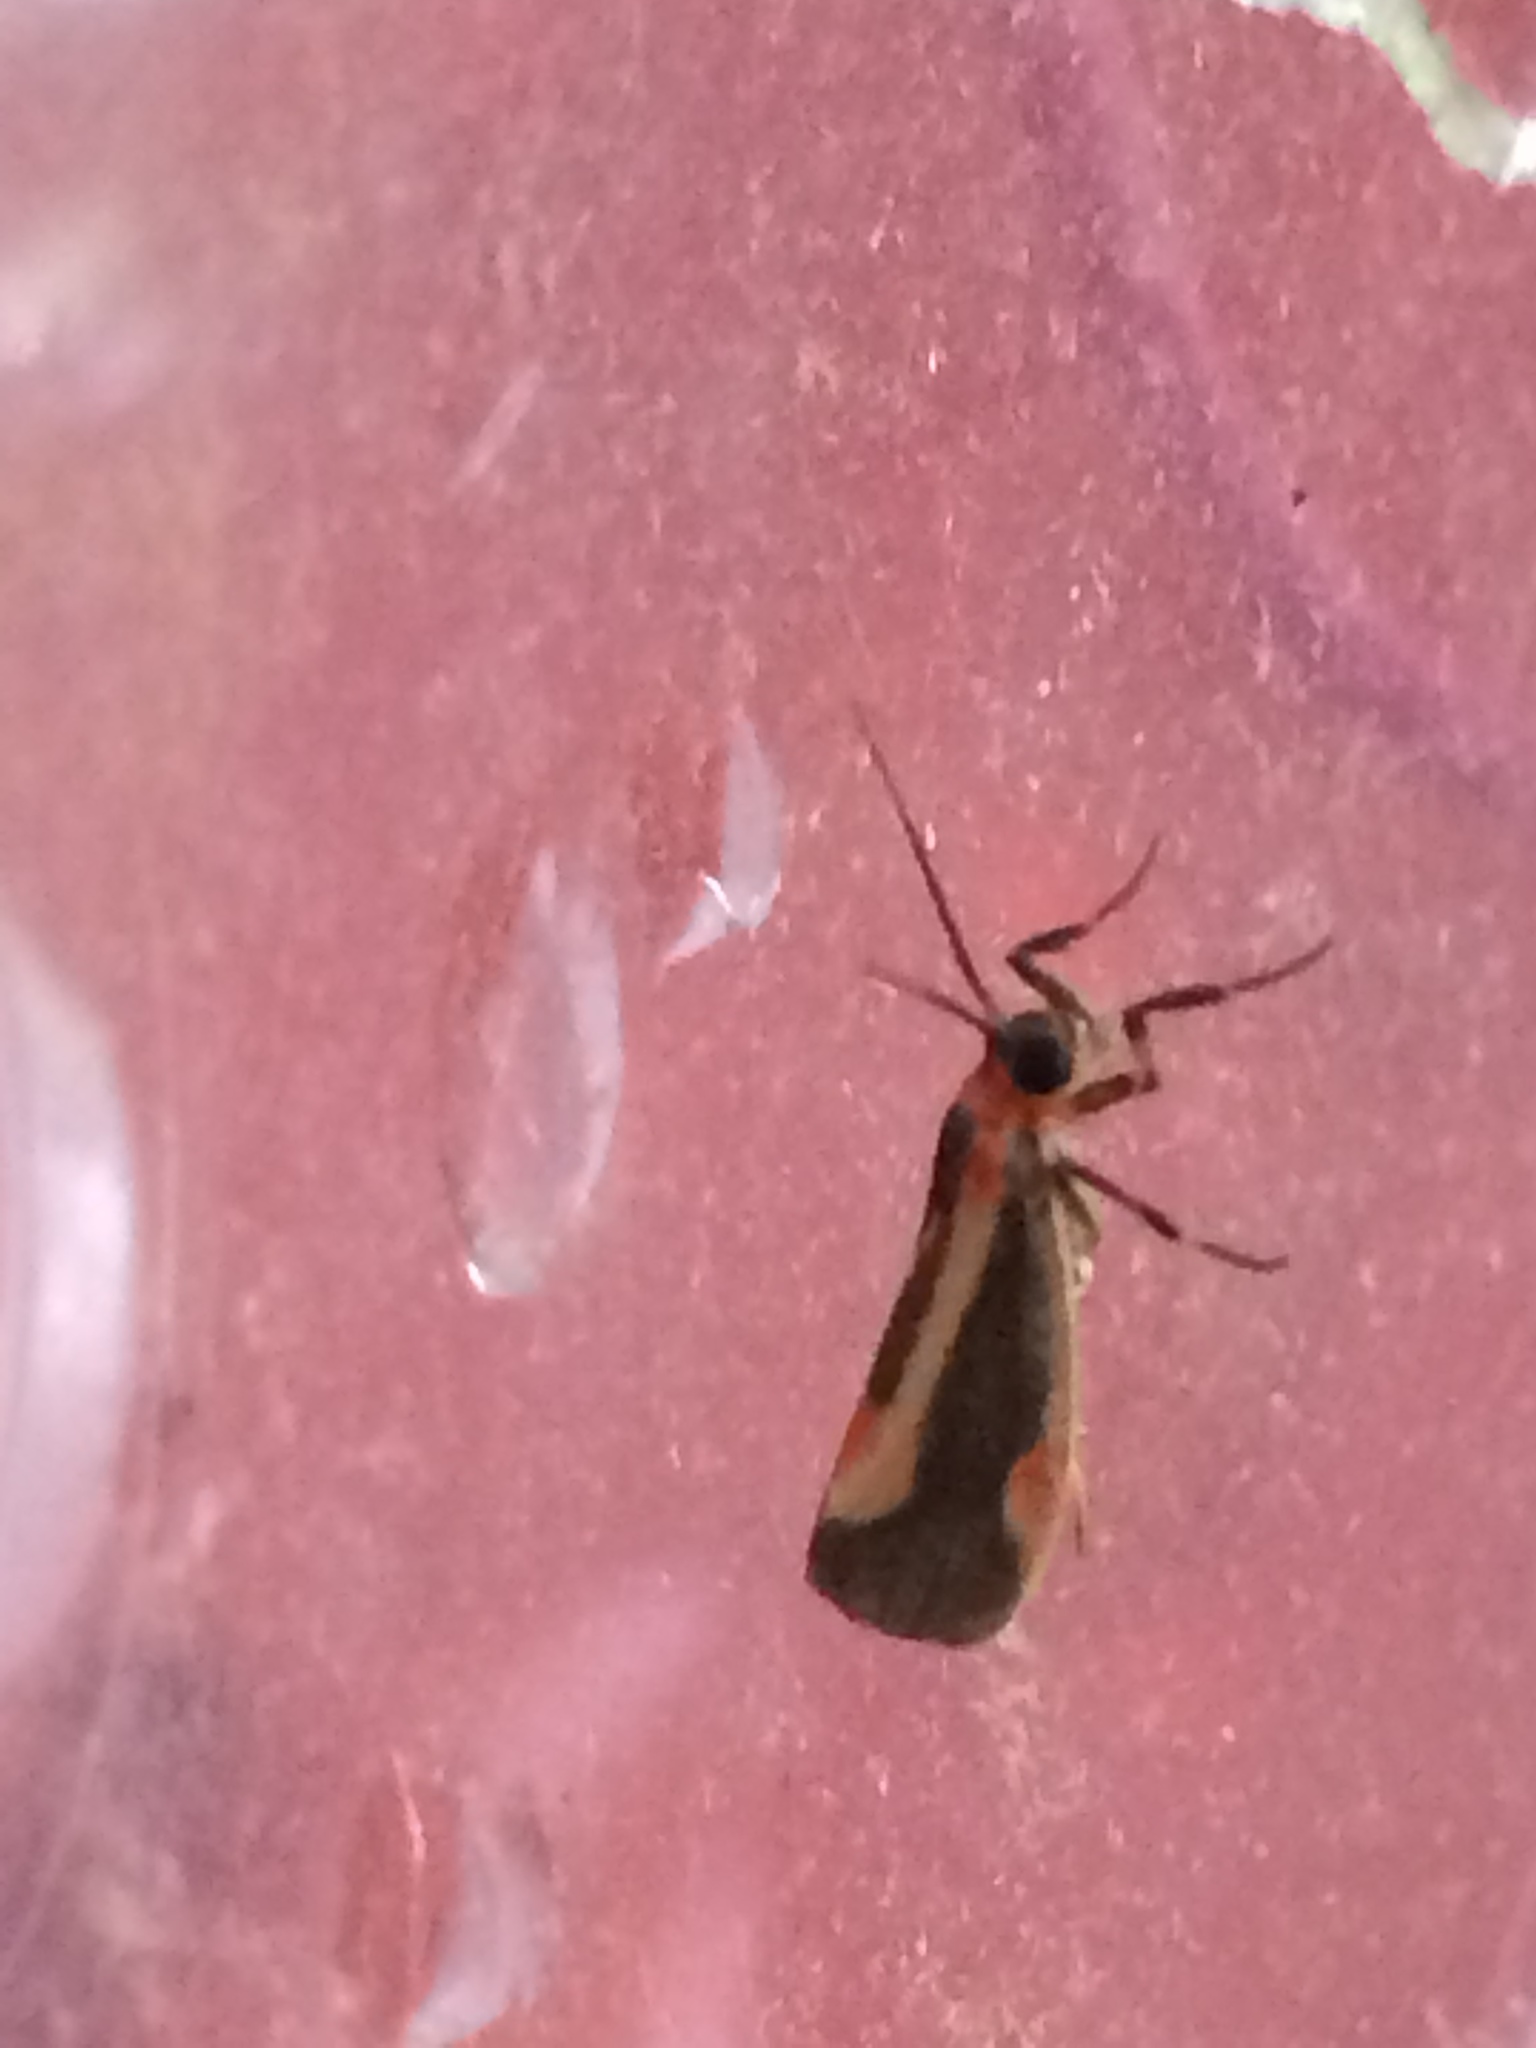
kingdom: Animalia
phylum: Arthropoda
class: Insecta
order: Lepidoptera
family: Erebidae
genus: Cisthene
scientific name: Cisthene packardii
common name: Packard's lichen moth
